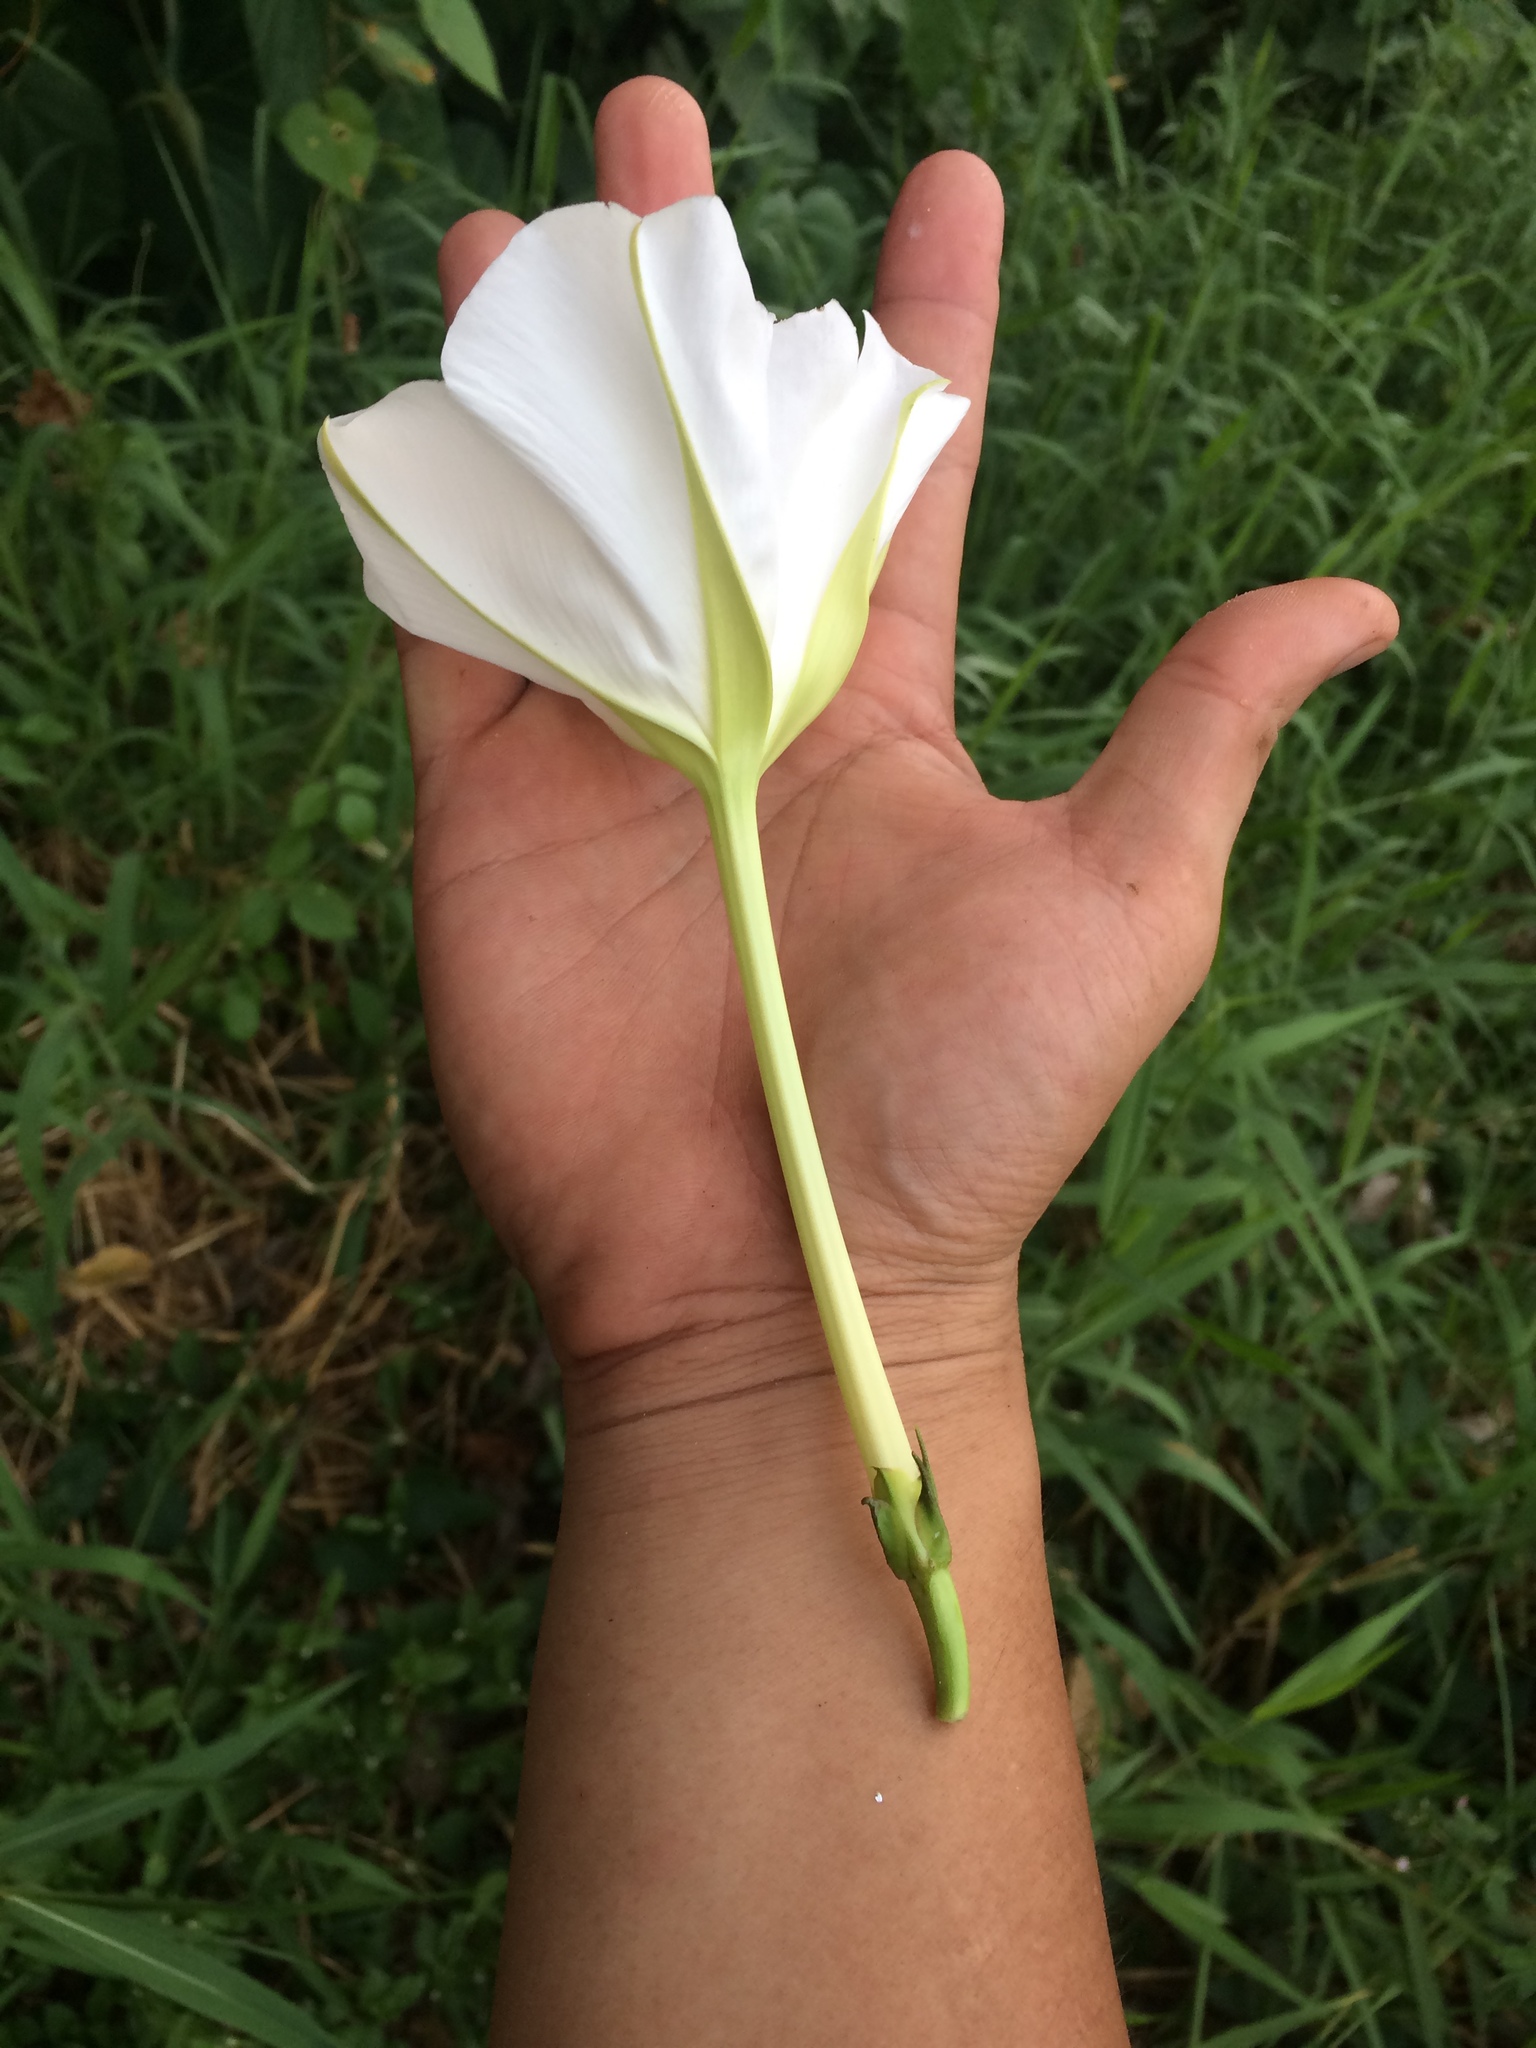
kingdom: Plantae
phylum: Tracheophyta
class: Magnoliopsida
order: Solanales
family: Convolvulaceae
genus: Ipomoea
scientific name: Ipomoea alba
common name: Moonflower
